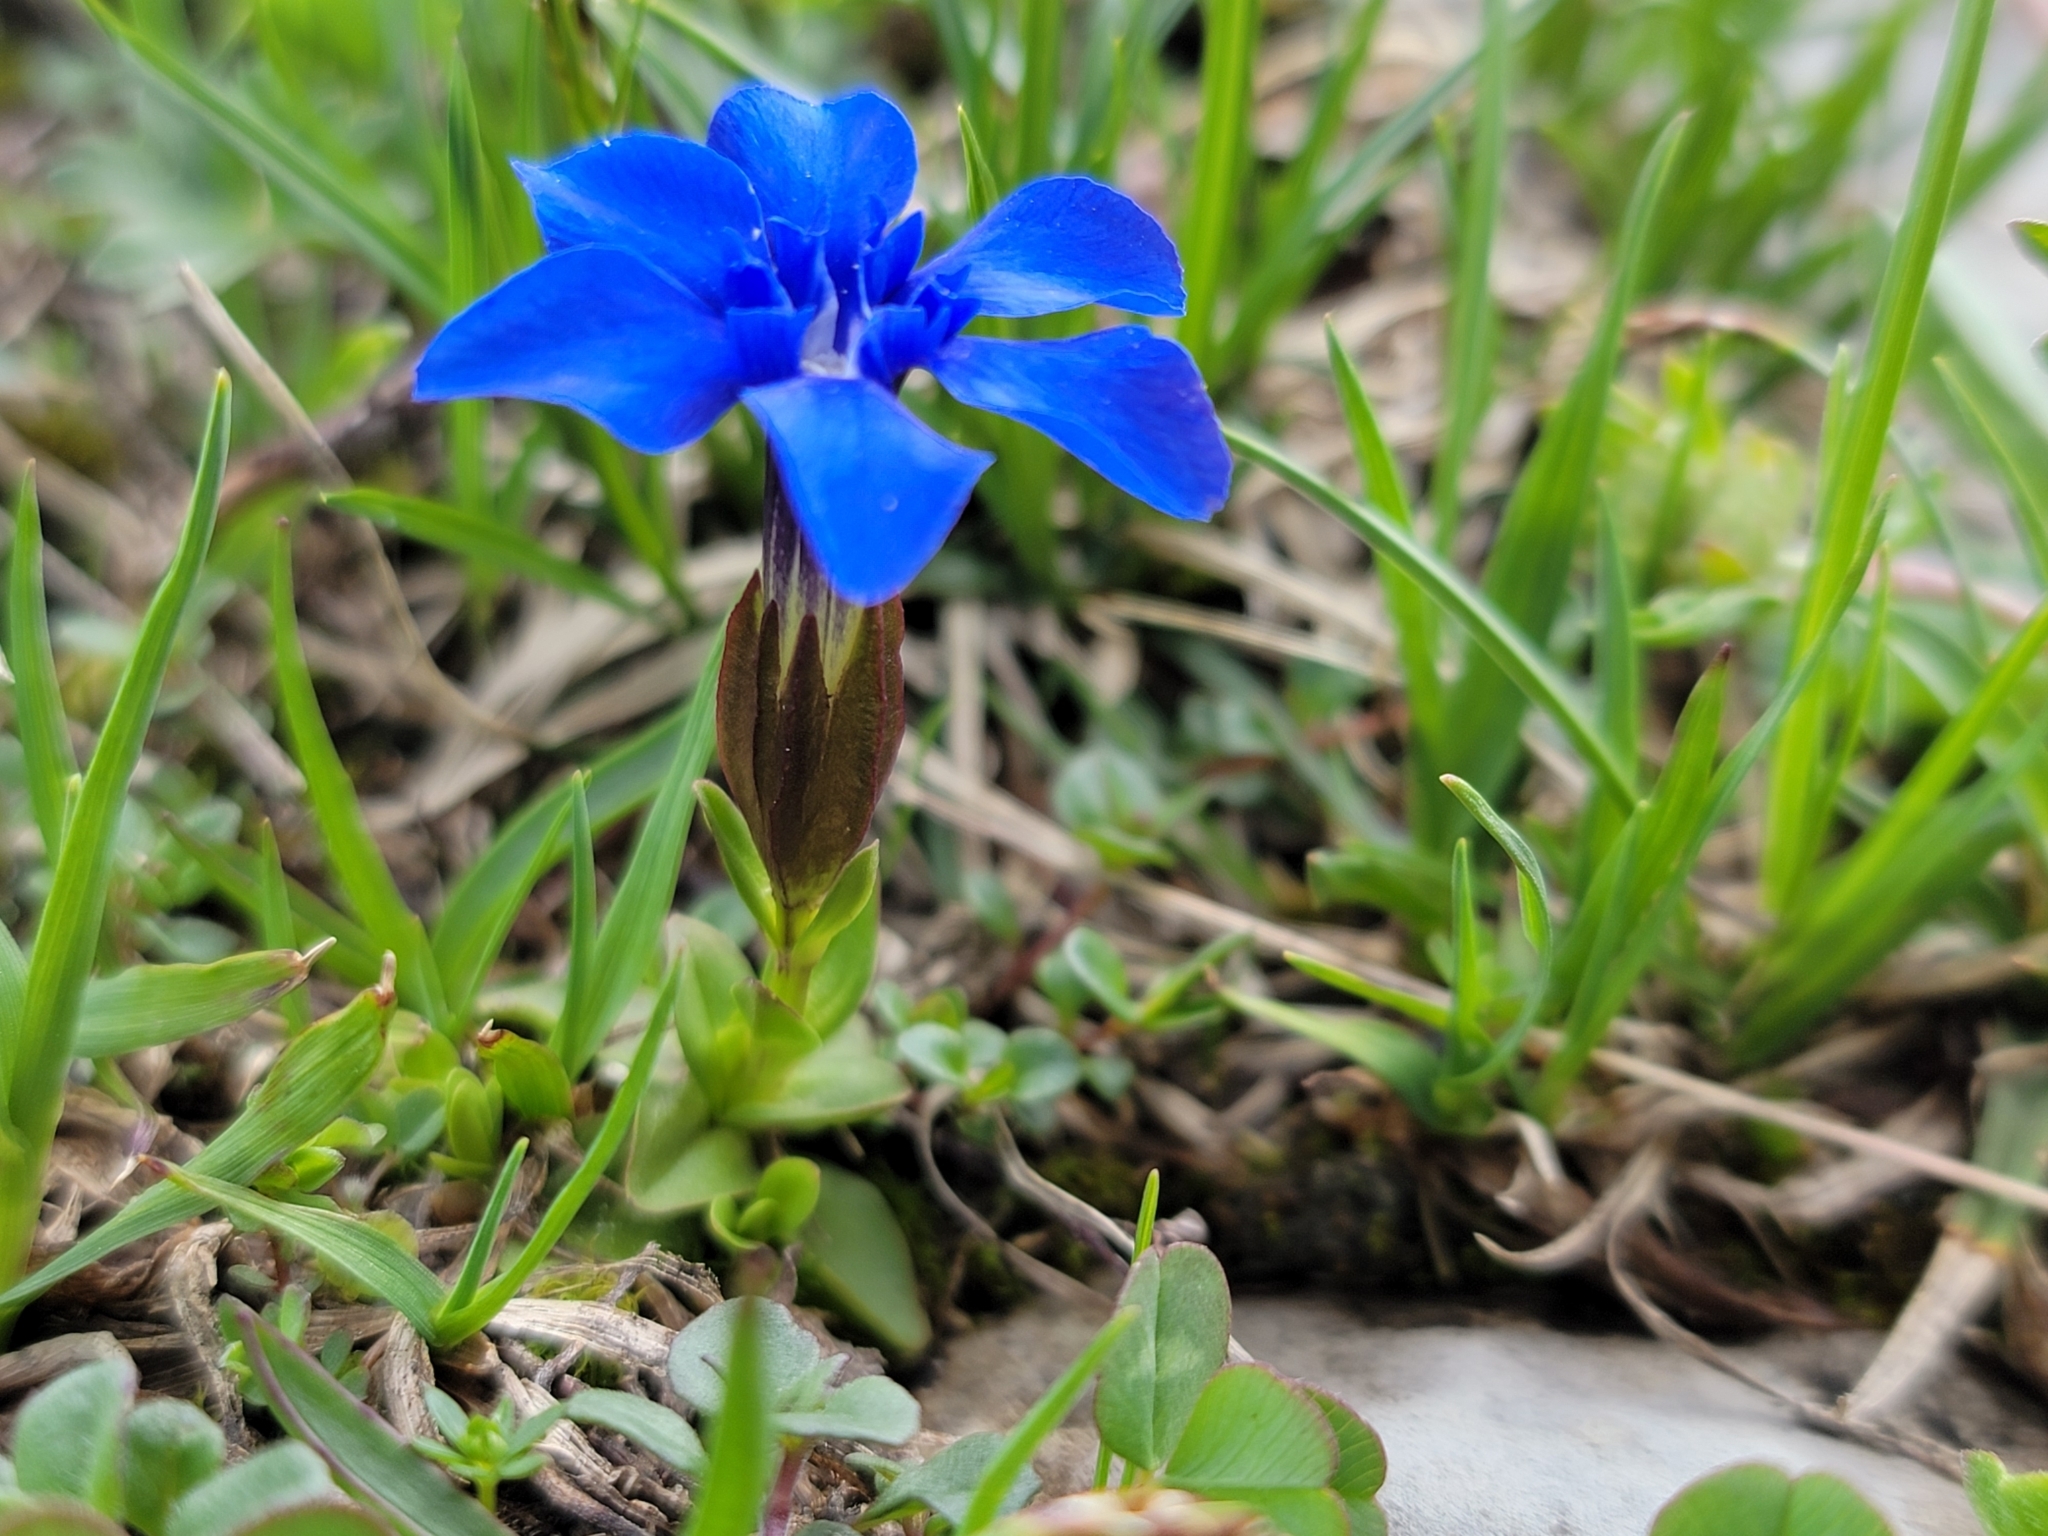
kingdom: Plantae
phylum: Tracheophyta
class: Magnoliopsida
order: Gentianales
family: Gentianaceae
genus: Gentiana
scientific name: Gentiana verna
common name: Spring gentian
